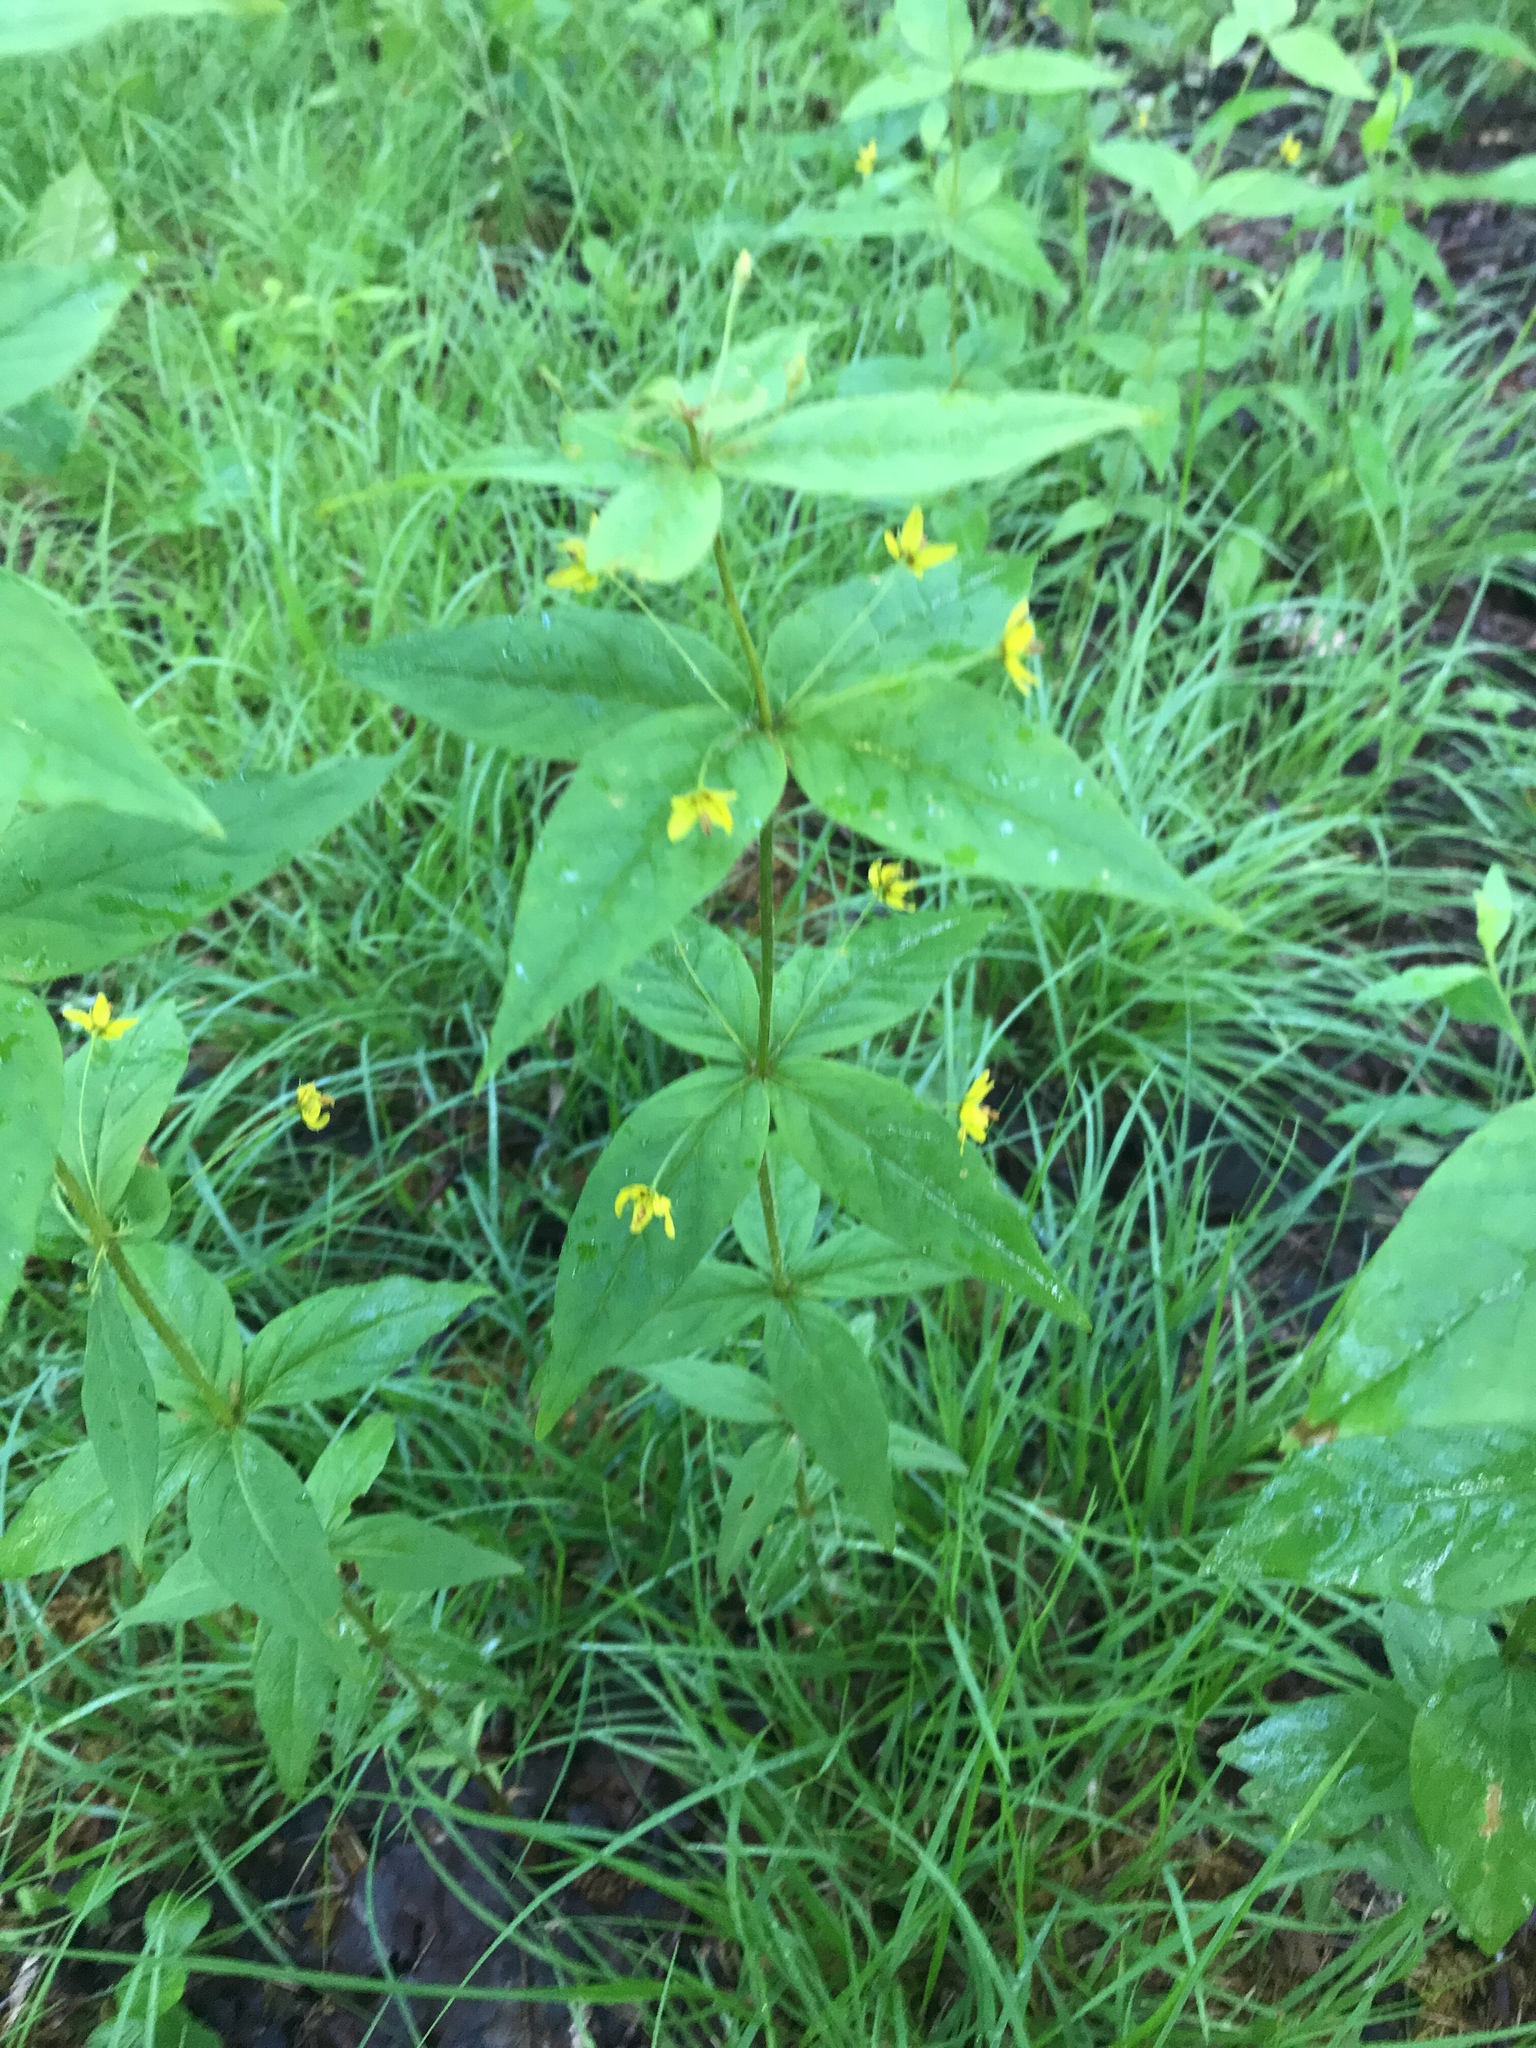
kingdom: Plantae
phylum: Tracheophyta
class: Magnoliopsida
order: Ericales
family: Primulaceae
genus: Lysimachia
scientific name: Lysimachia quadrifolia
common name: Whorled loosestrife
